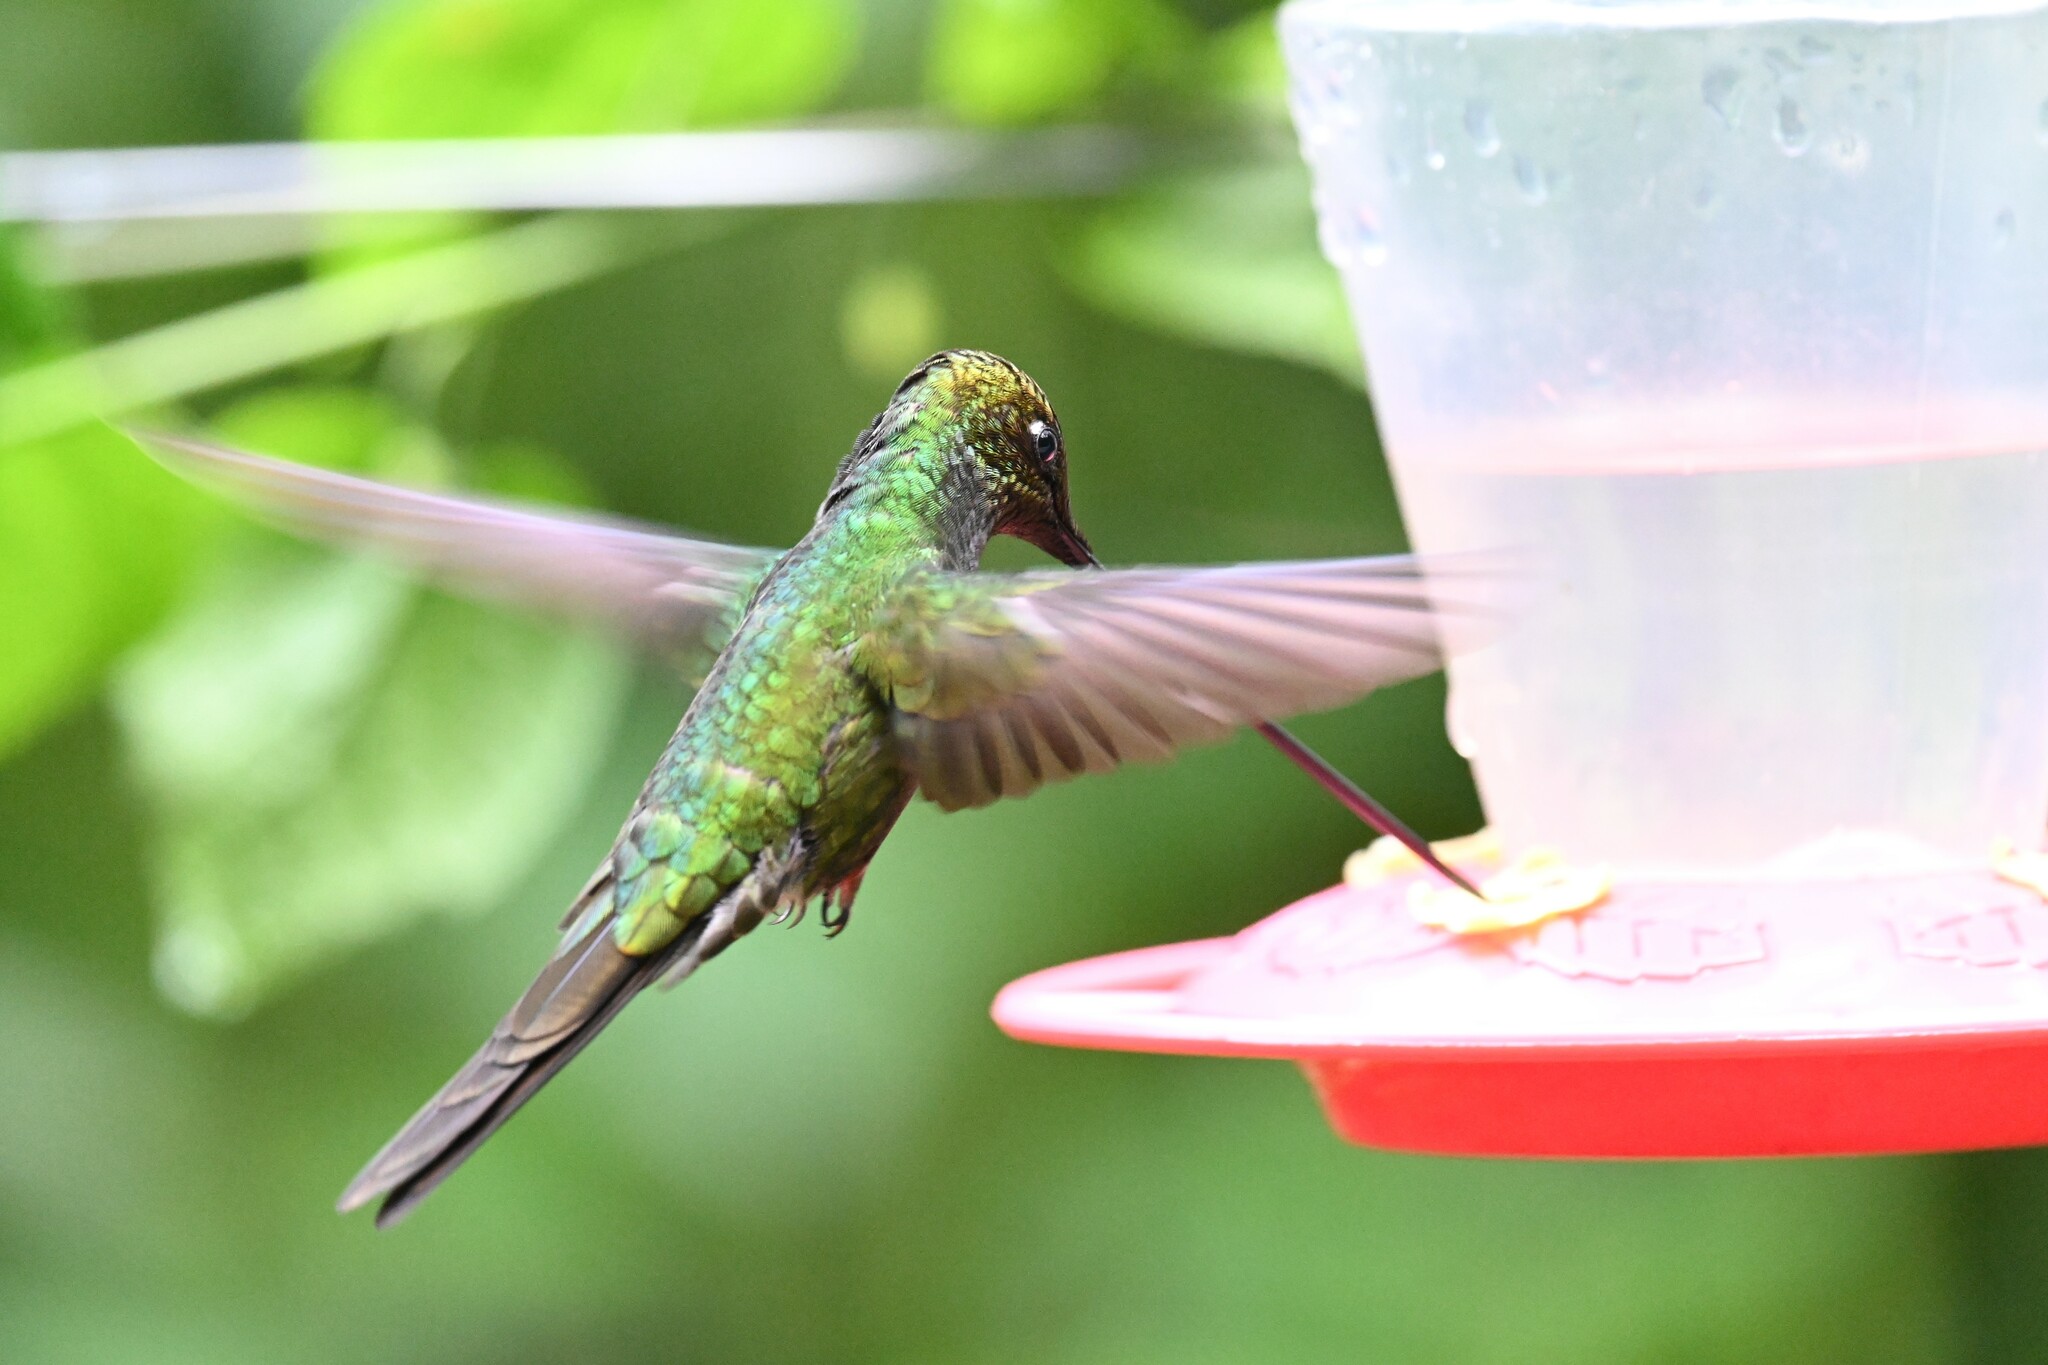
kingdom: Animalia
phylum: Chordata
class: Aves
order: Apodiformes
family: Trochilidae
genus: Ensifera
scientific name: Ensifera ensifera
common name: Sword-billed hummingbird
